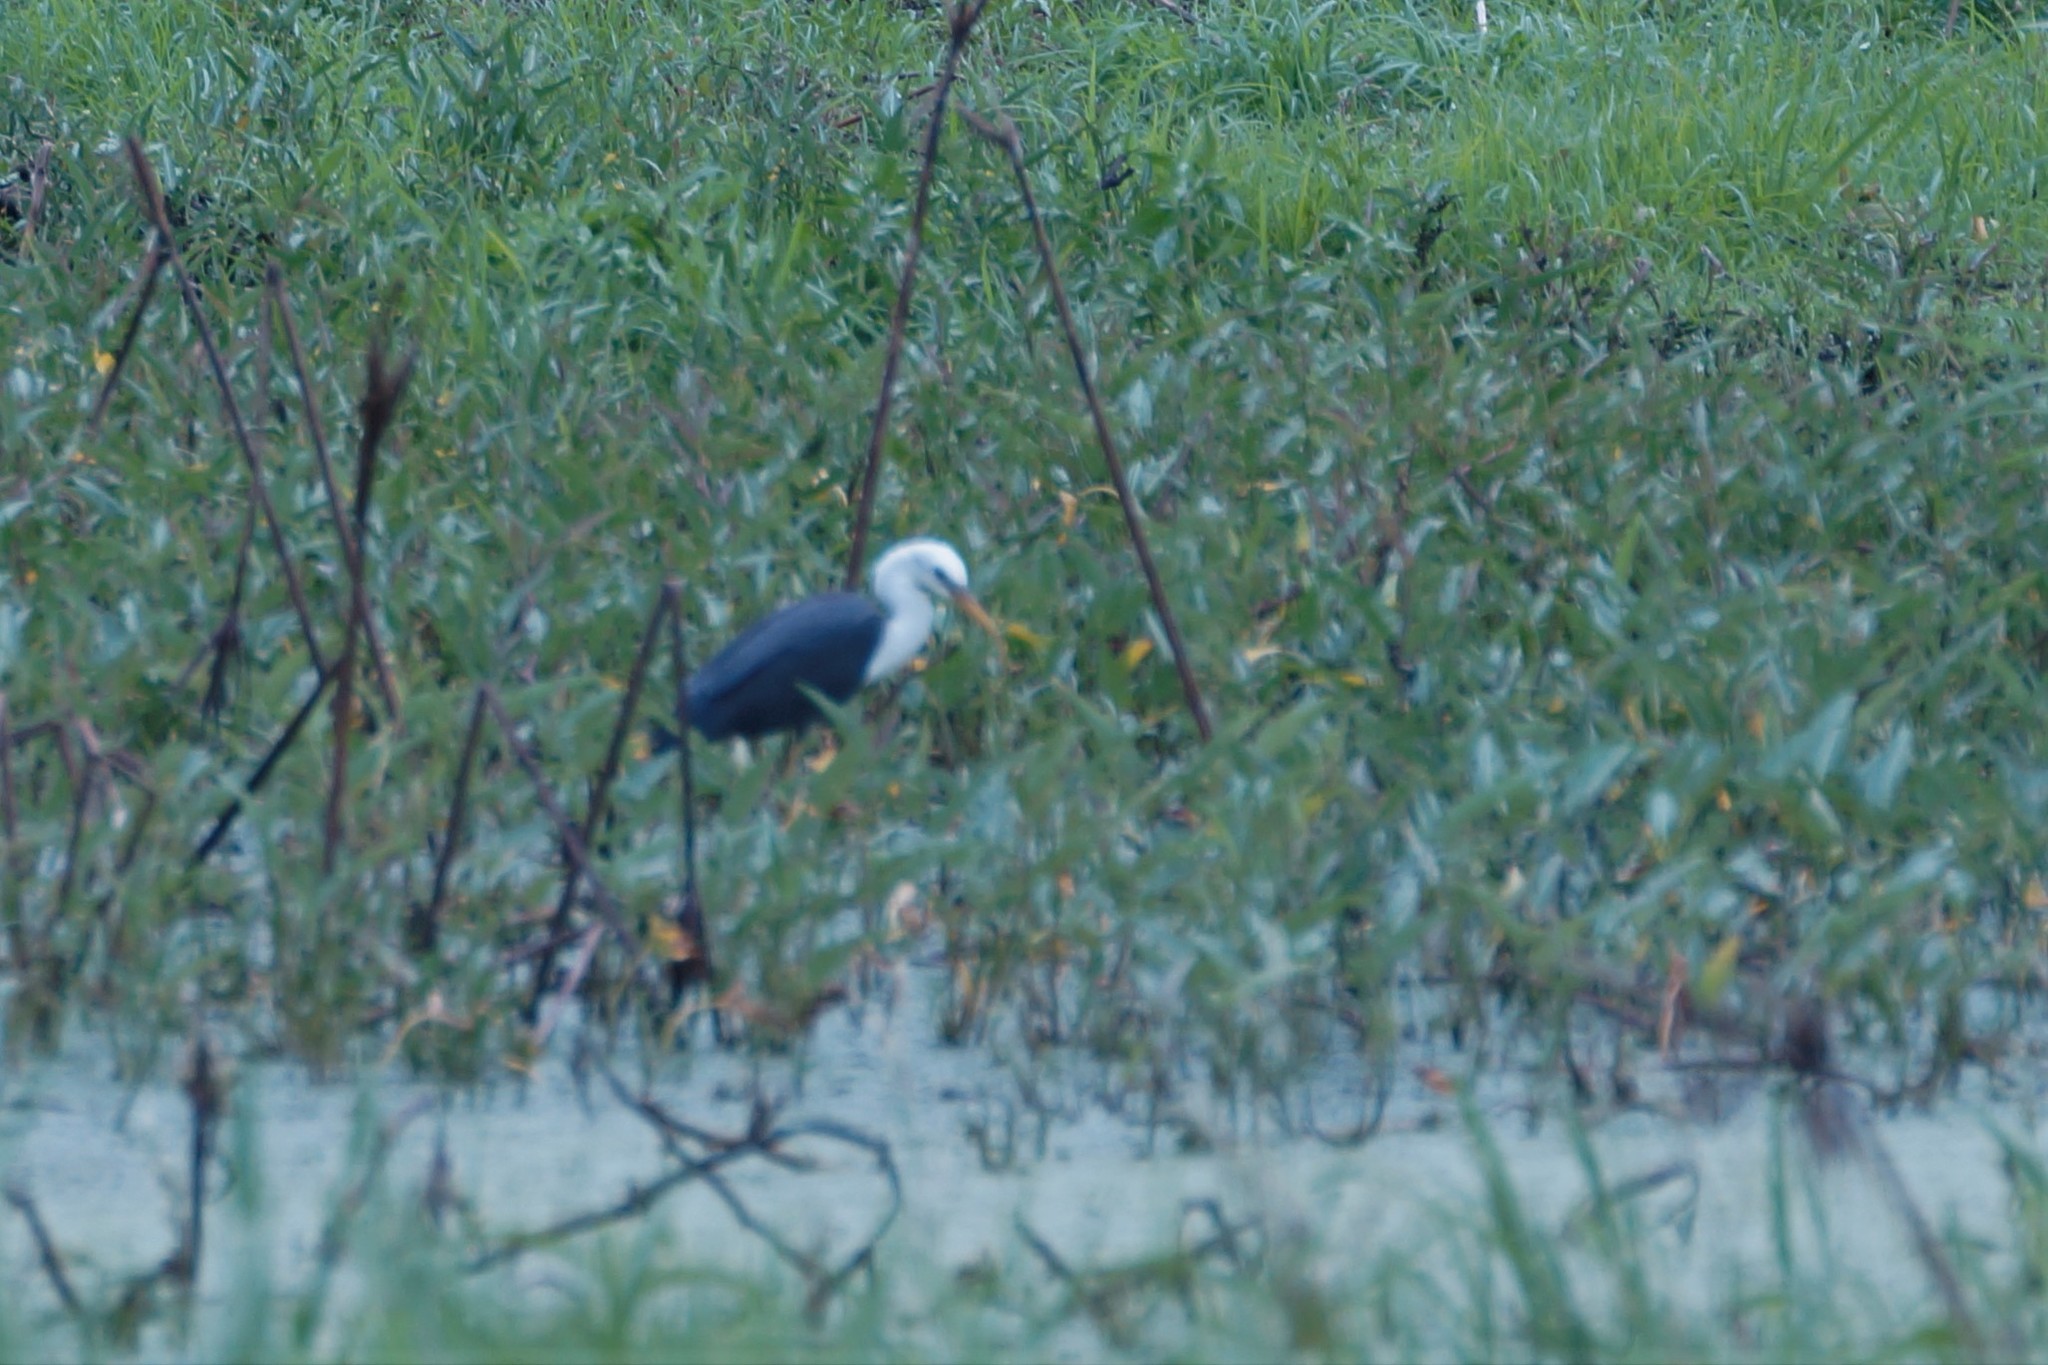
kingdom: Animalia
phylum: Chordata
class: Aves
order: Pelecaniformes
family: Ardeidae
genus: Egretta
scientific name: Egretta picata
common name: Pied heron
